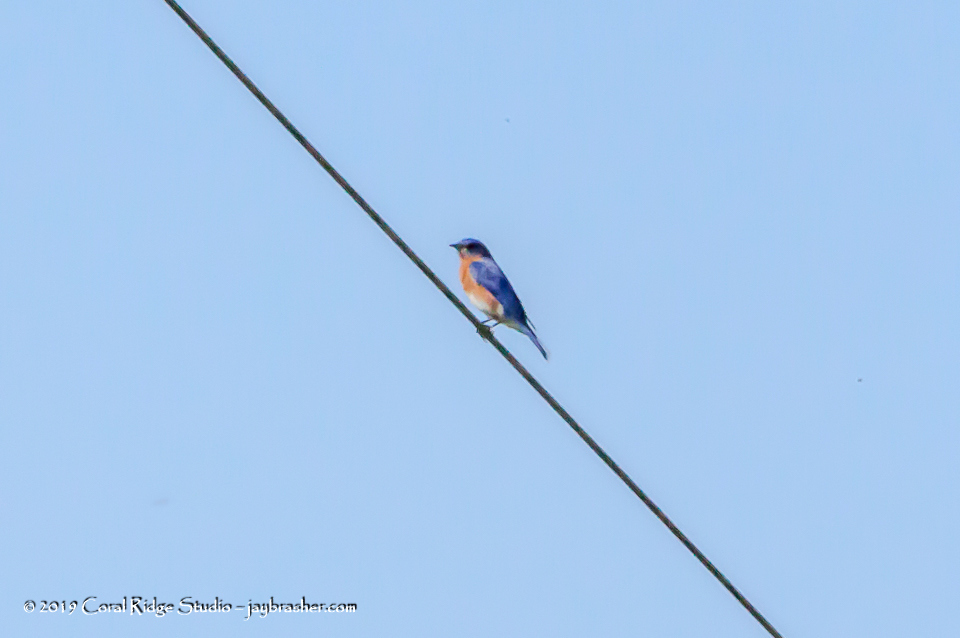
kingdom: Animalia
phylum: Chordata
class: Aves
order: Passeriformes
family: Turdidae
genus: Sialia
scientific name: Sialia sialis
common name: Eastern bluebird
